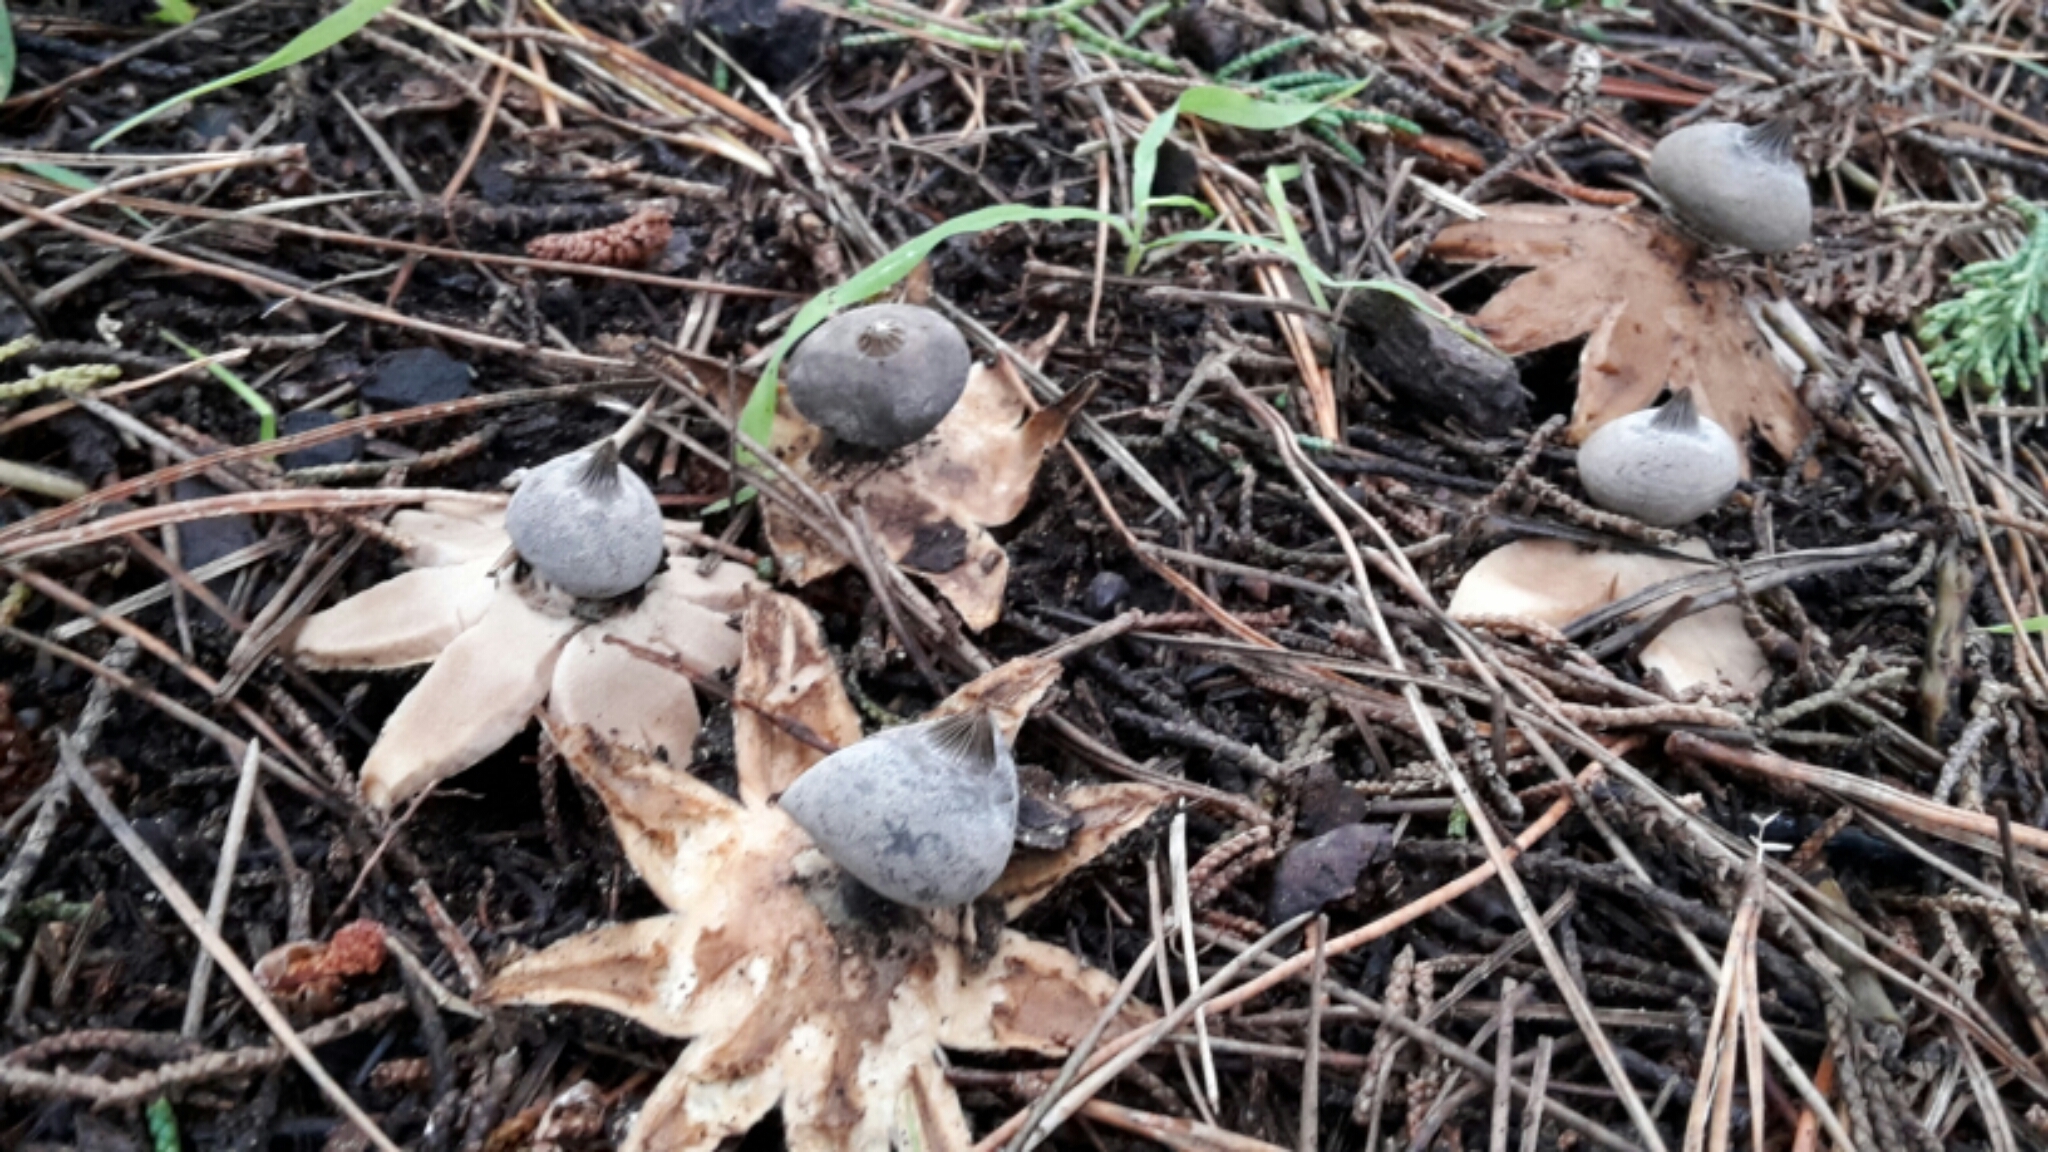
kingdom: Fungi
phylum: Basidiomycota
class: Agaricomycetes
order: Geastrales
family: Geastraceae
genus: Geastrum
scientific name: Geastrum pectinatum
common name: Beaked earthstar
